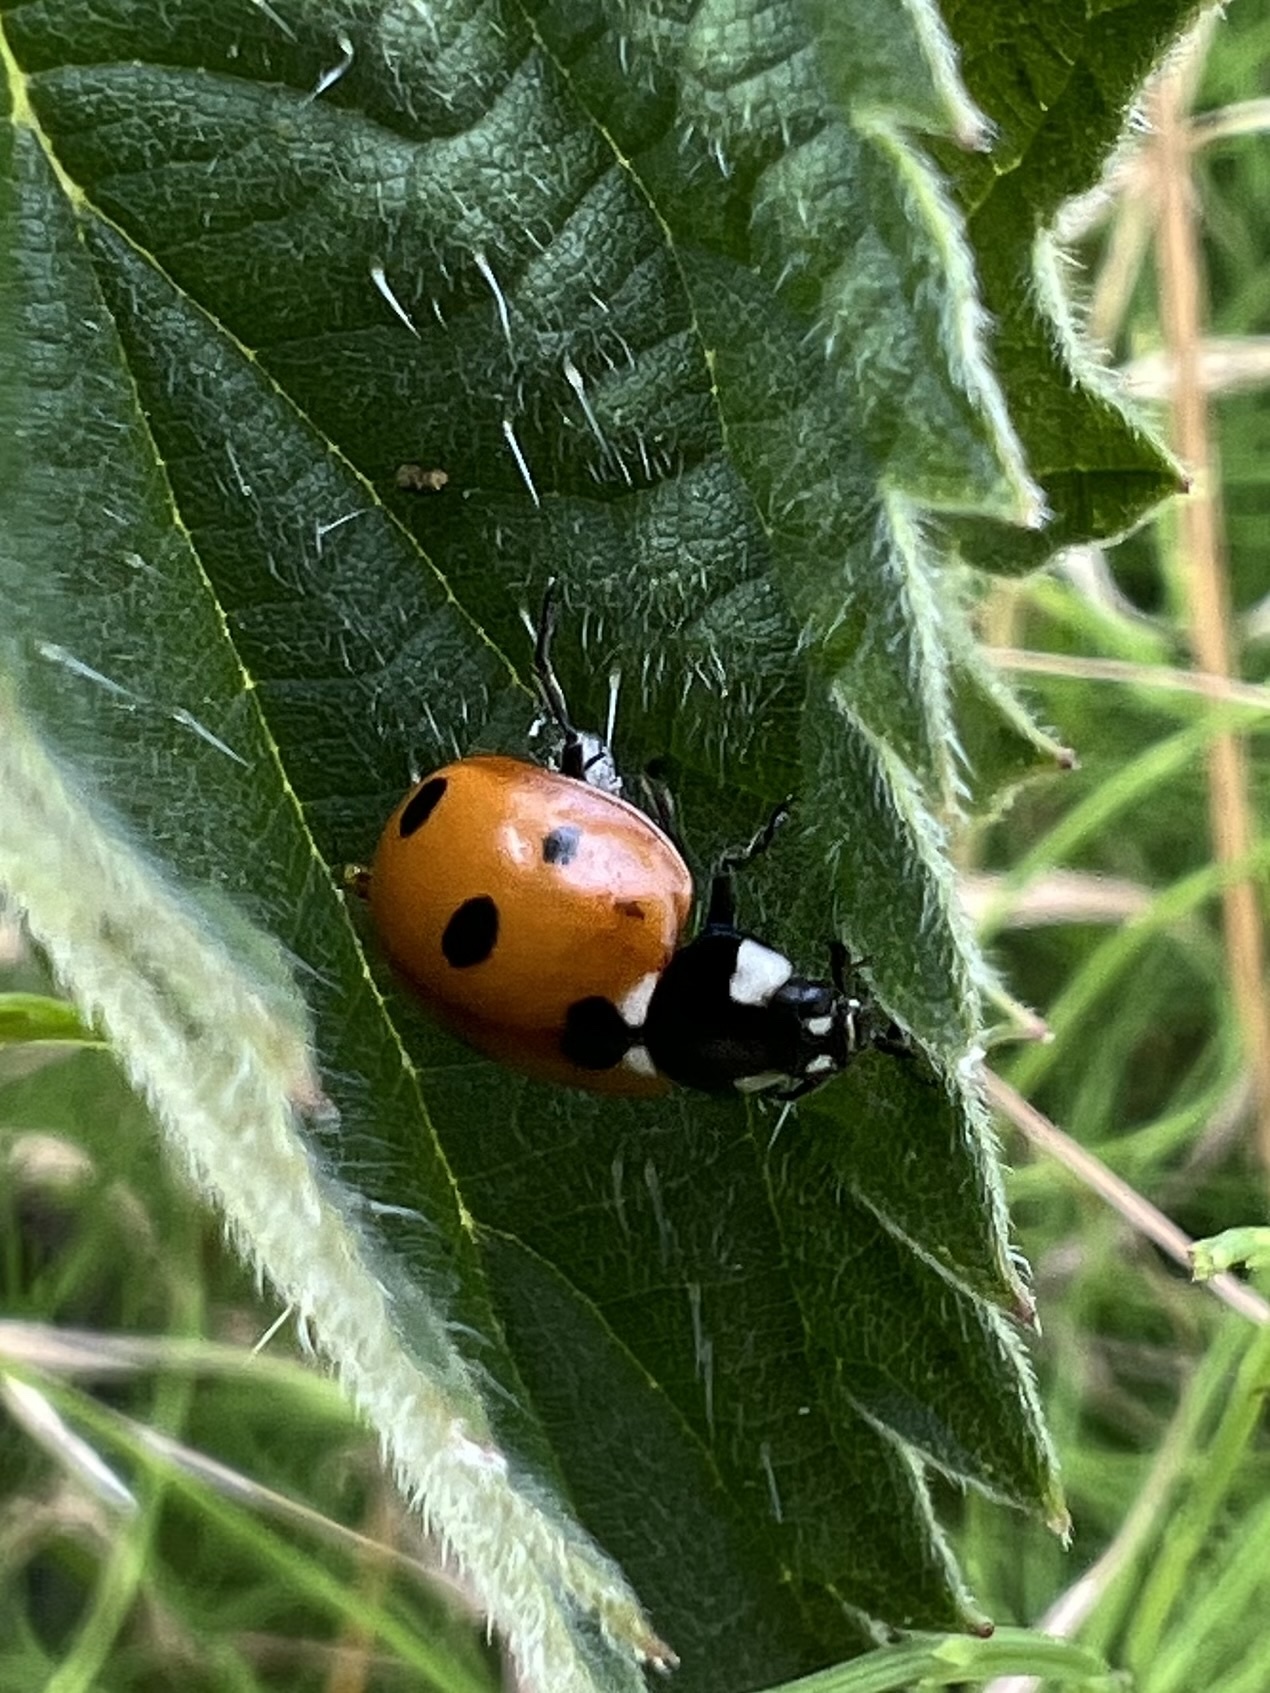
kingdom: Animalia
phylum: Arthropoda
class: Insecta
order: Coleoptera
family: Coccinellidae
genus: Coccinella
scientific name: Coccinella septempunctata
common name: Sevenspotted lady beetle
